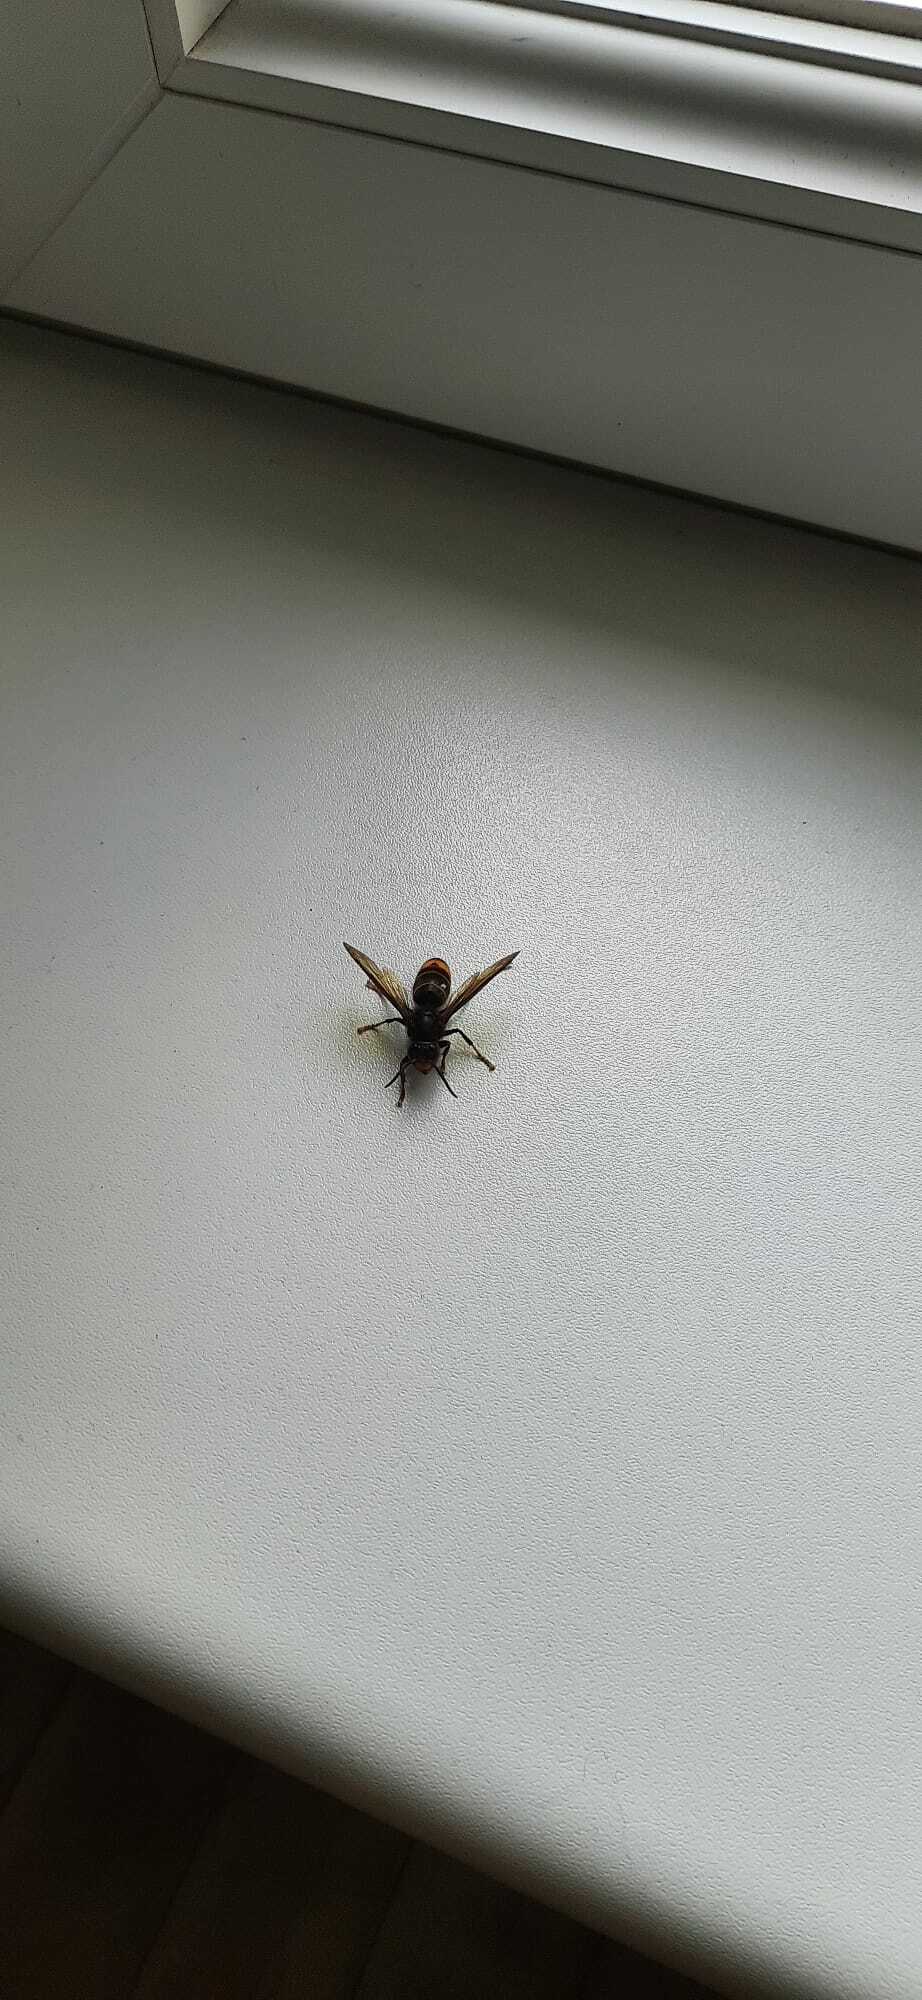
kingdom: Animalia
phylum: Arthropoda
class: Insecta
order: Hymenoptera
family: Vespidae
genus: Vespa
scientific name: Vespa velutina
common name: Asian hornet
